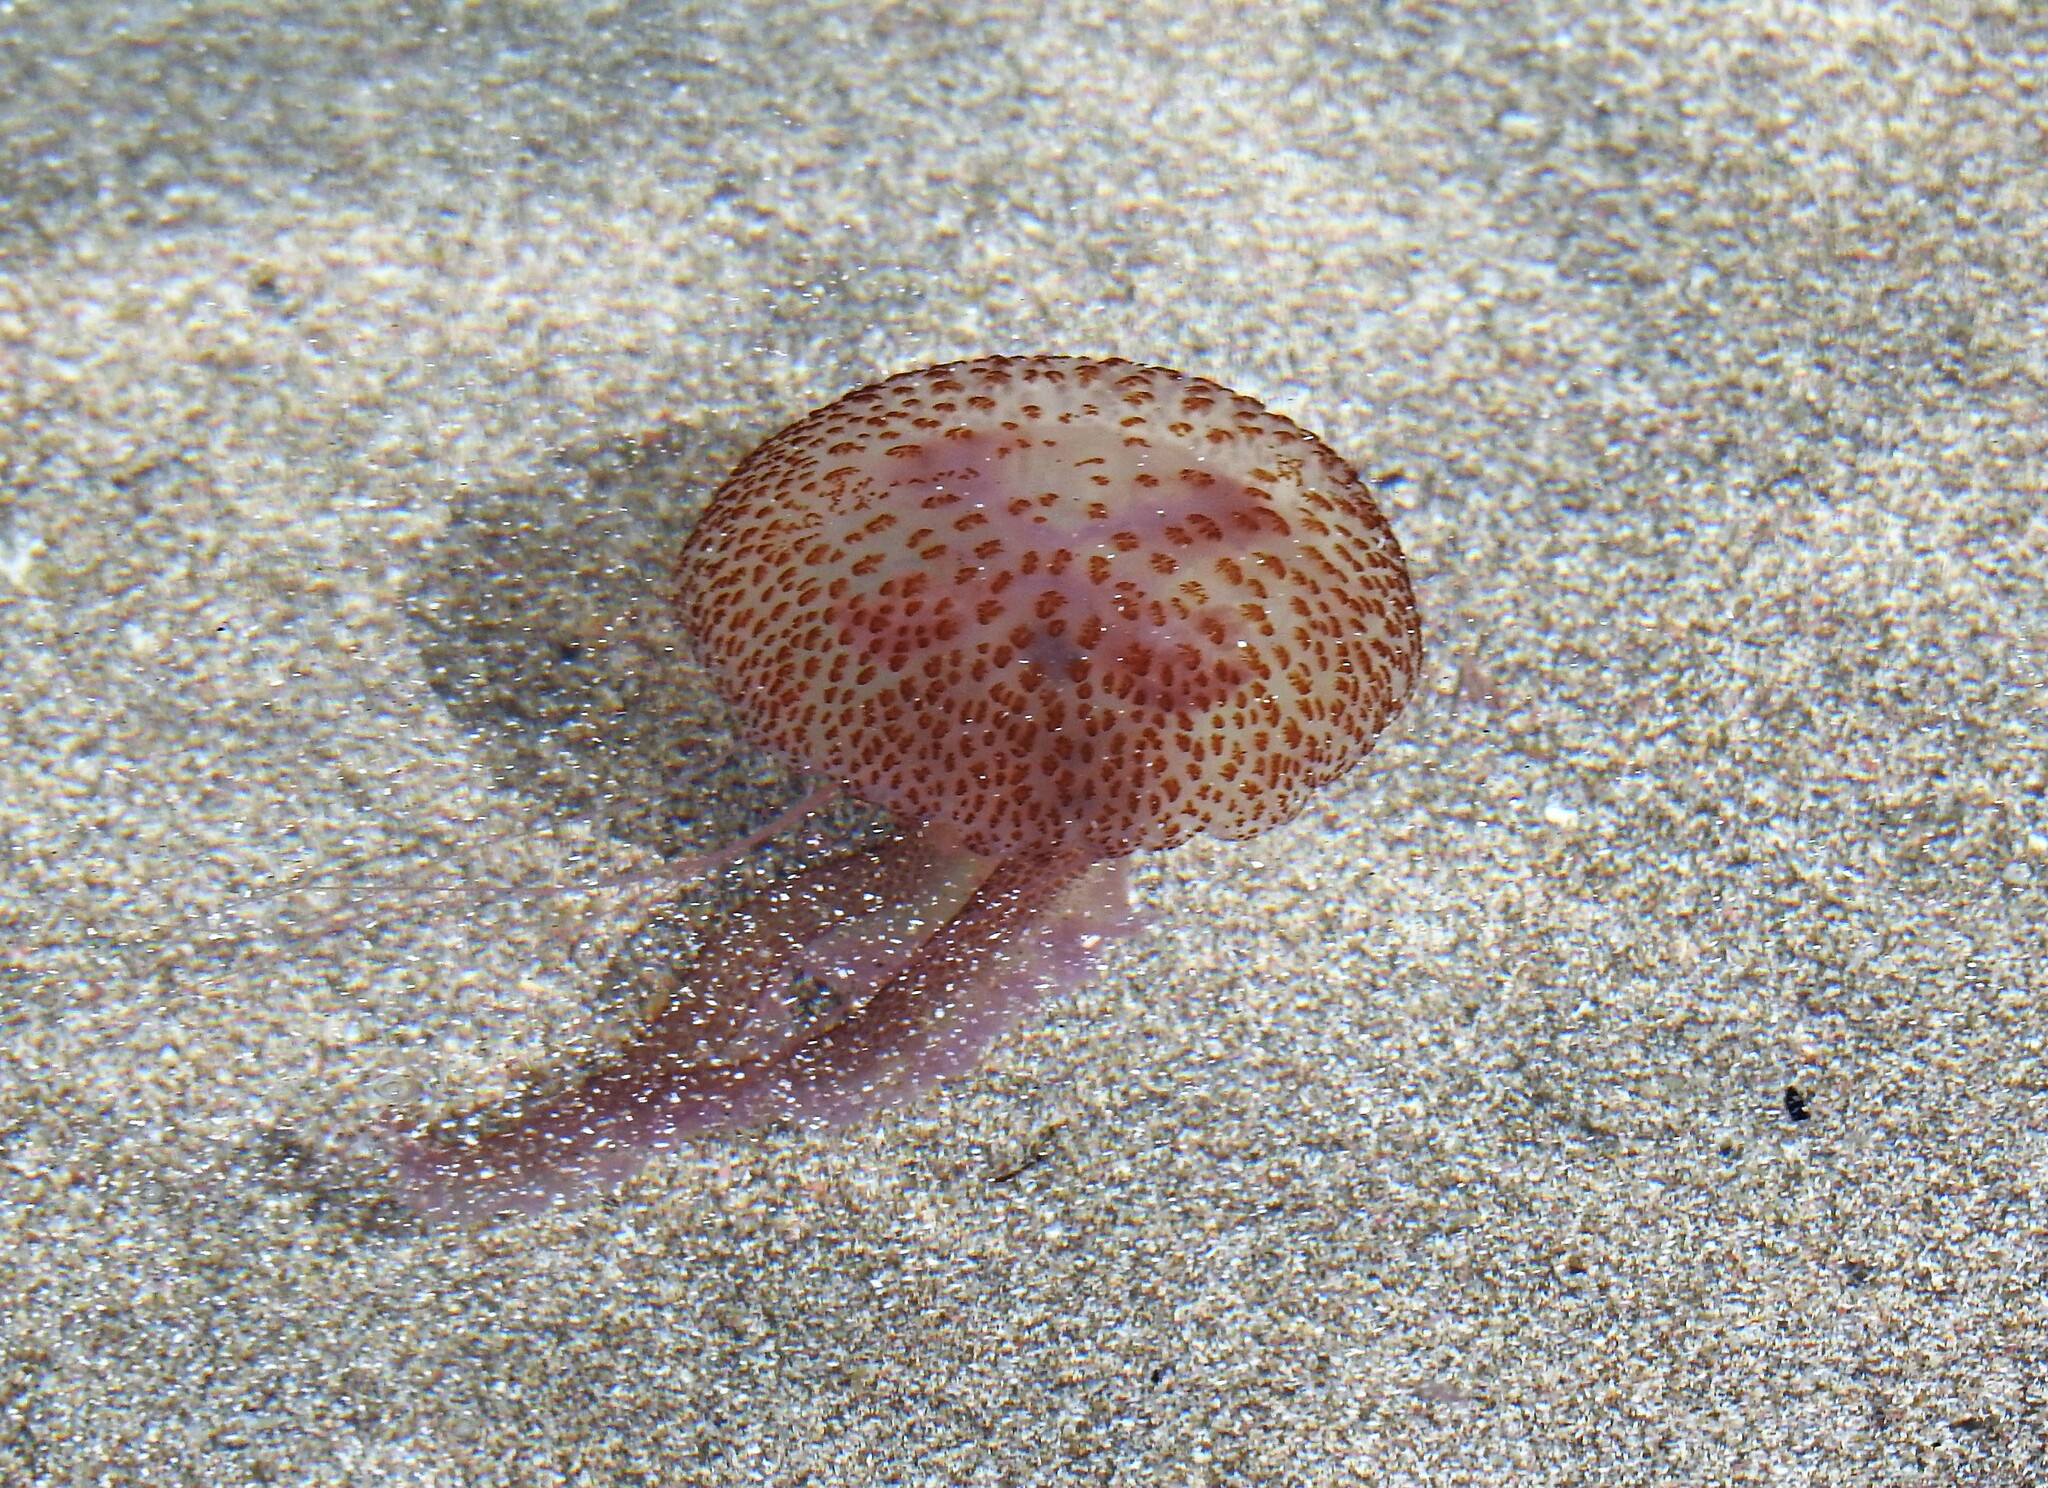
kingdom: Animalia
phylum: Cnidaria
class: Scyphozoa
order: Semaeostomeae
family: Pelagiidae
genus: Pelagia
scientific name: Pelagia noctiluca
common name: Mauve stinger
